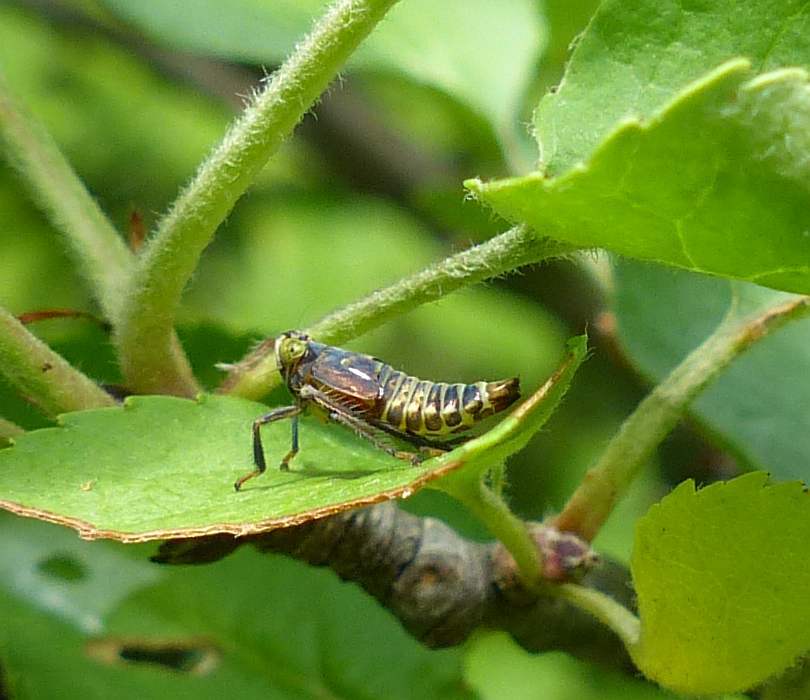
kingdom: Animalia
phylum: Arthropoda
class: Insecta
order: Hemiptera
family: Cicadellidae
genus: Jikradia
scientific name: Jikradia olitoria
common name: Coppery leafhopper
